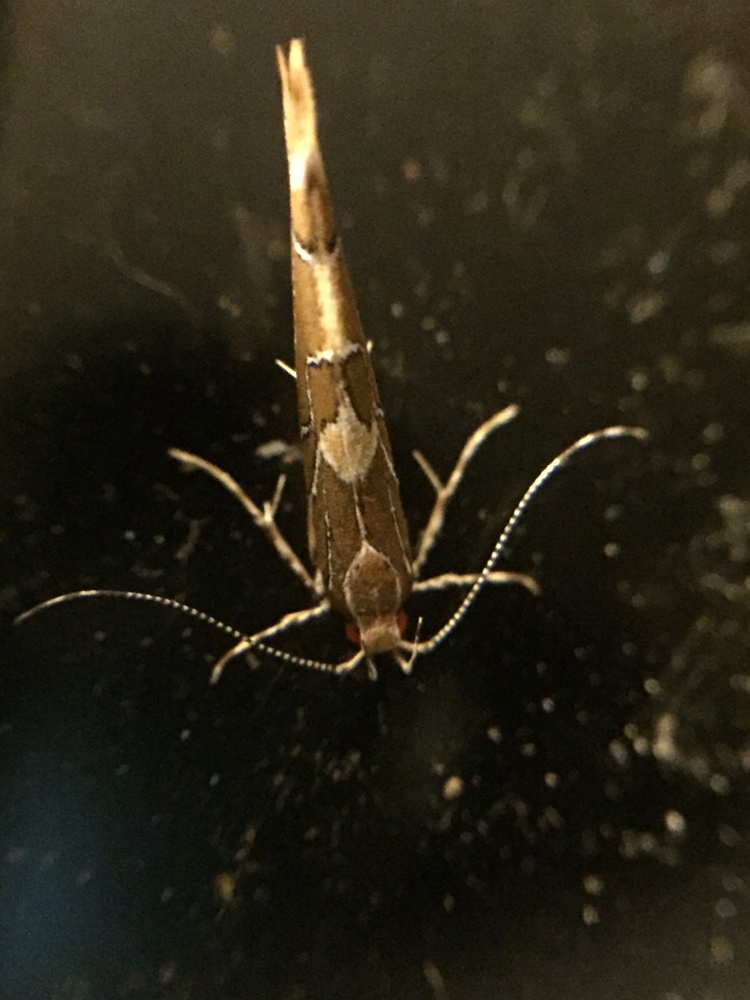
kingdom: Animalia
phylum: Arthropoda
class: Insecta
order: Lepidoptera
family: Cosmopterigidae
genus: Pyroderces
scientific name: Pyroderces apparitella
